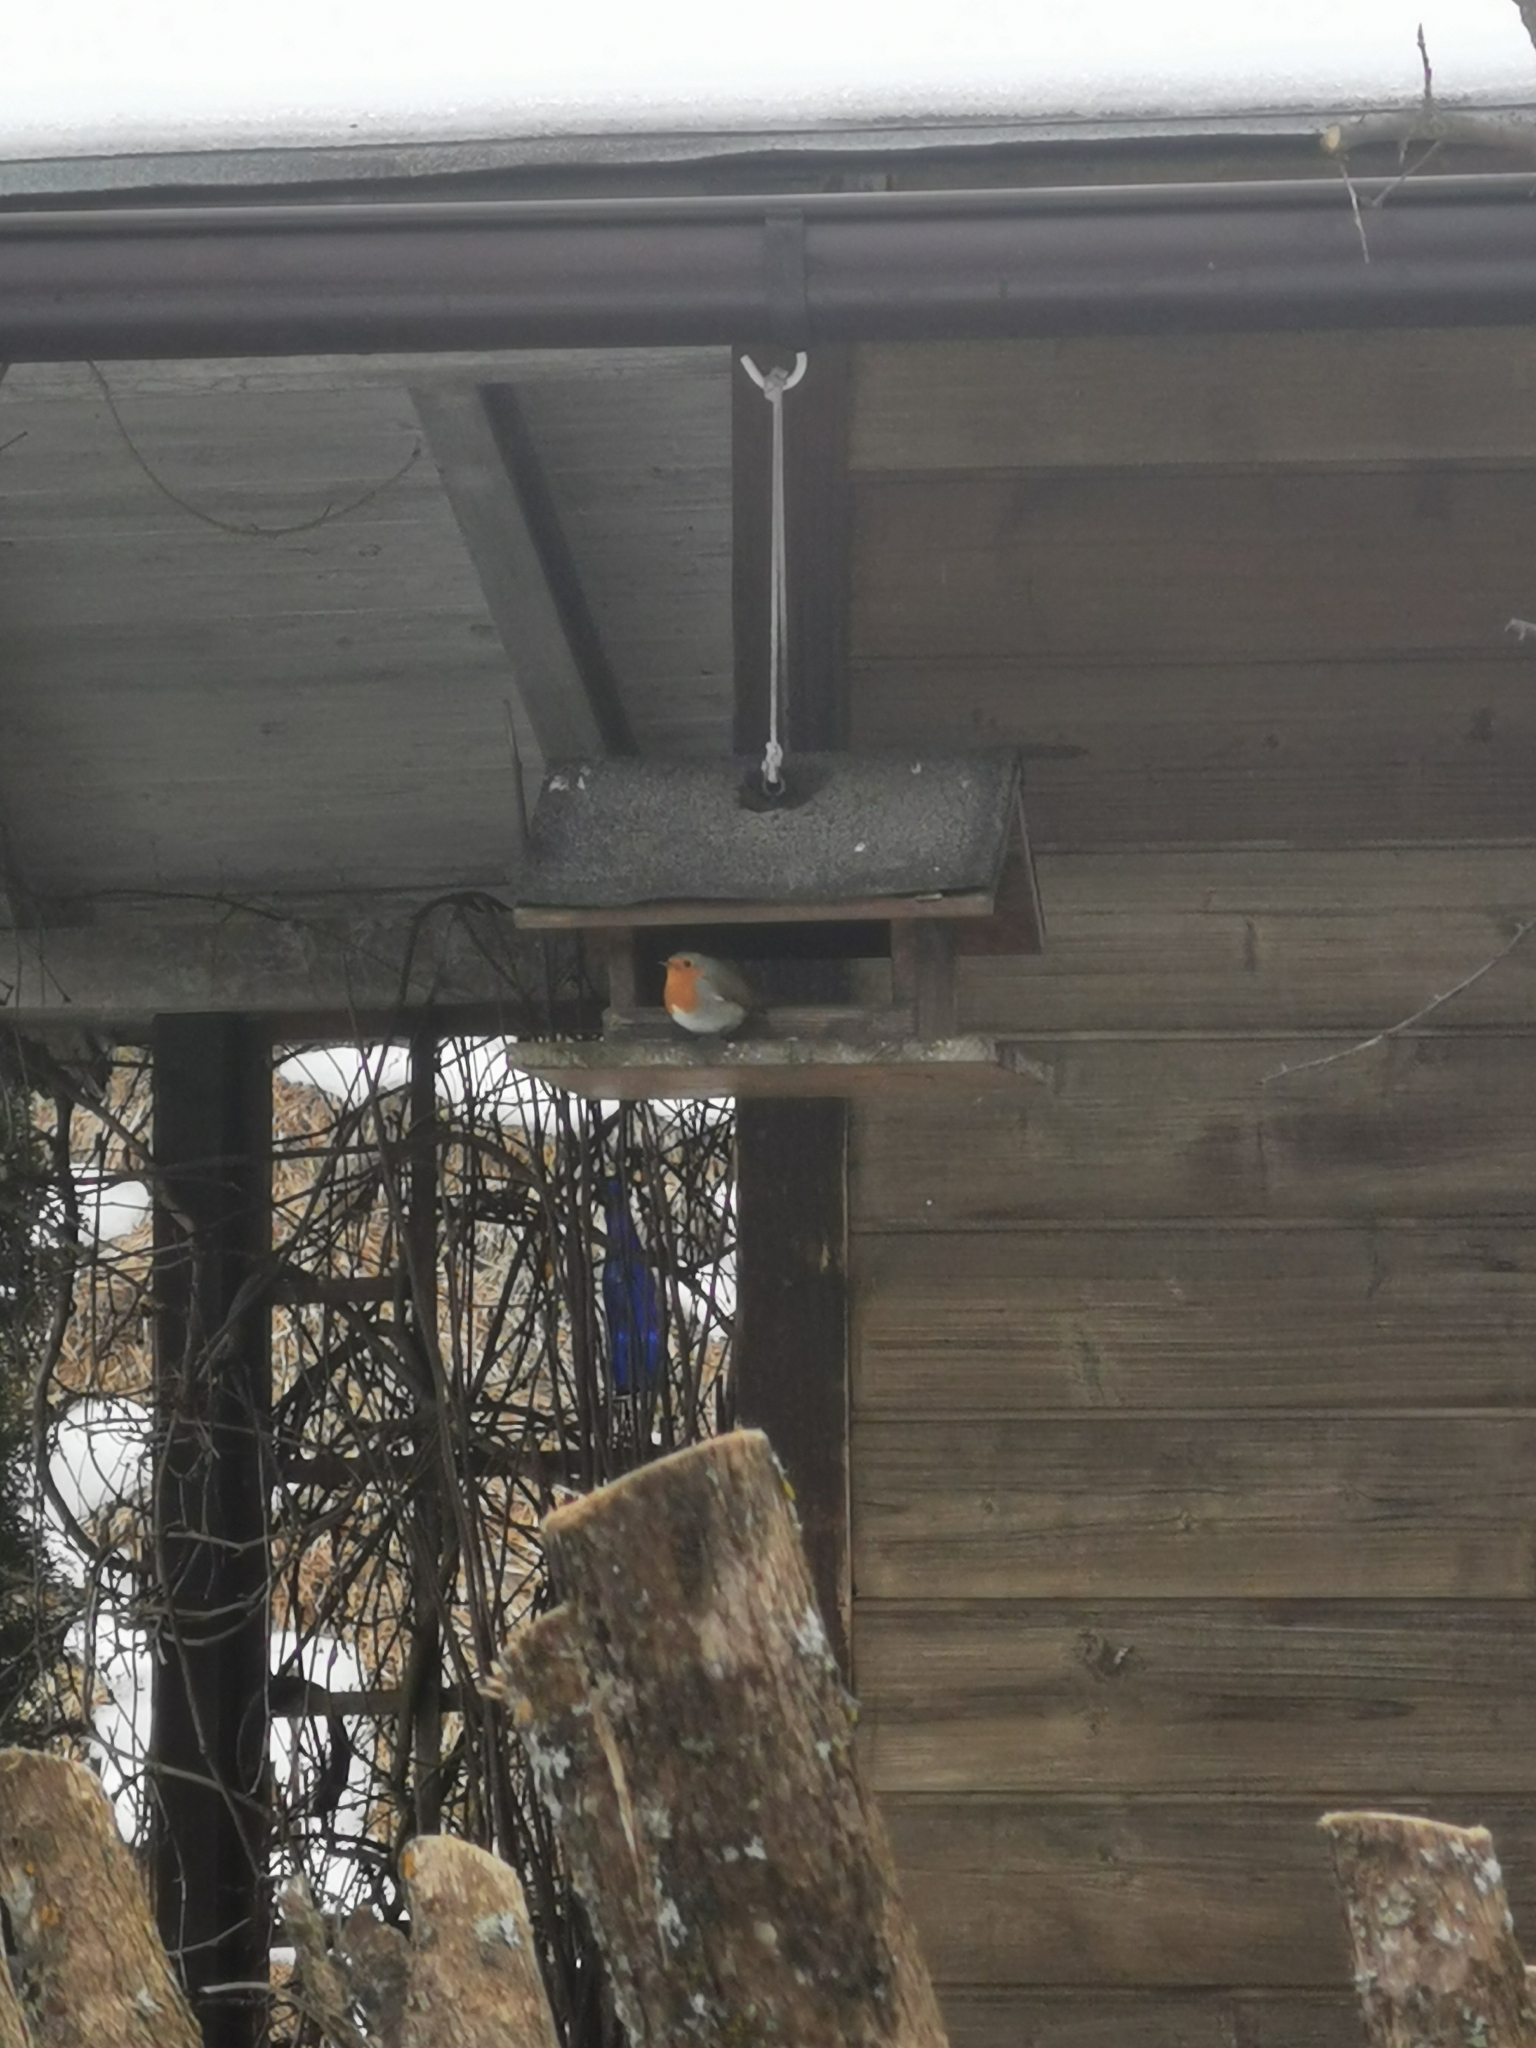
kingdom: Animalia
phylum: Chordata
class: Aves
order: Passeriformes
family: Muscicapidae
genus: Erithacus
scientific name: Erithacus rubecula
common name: European robin
